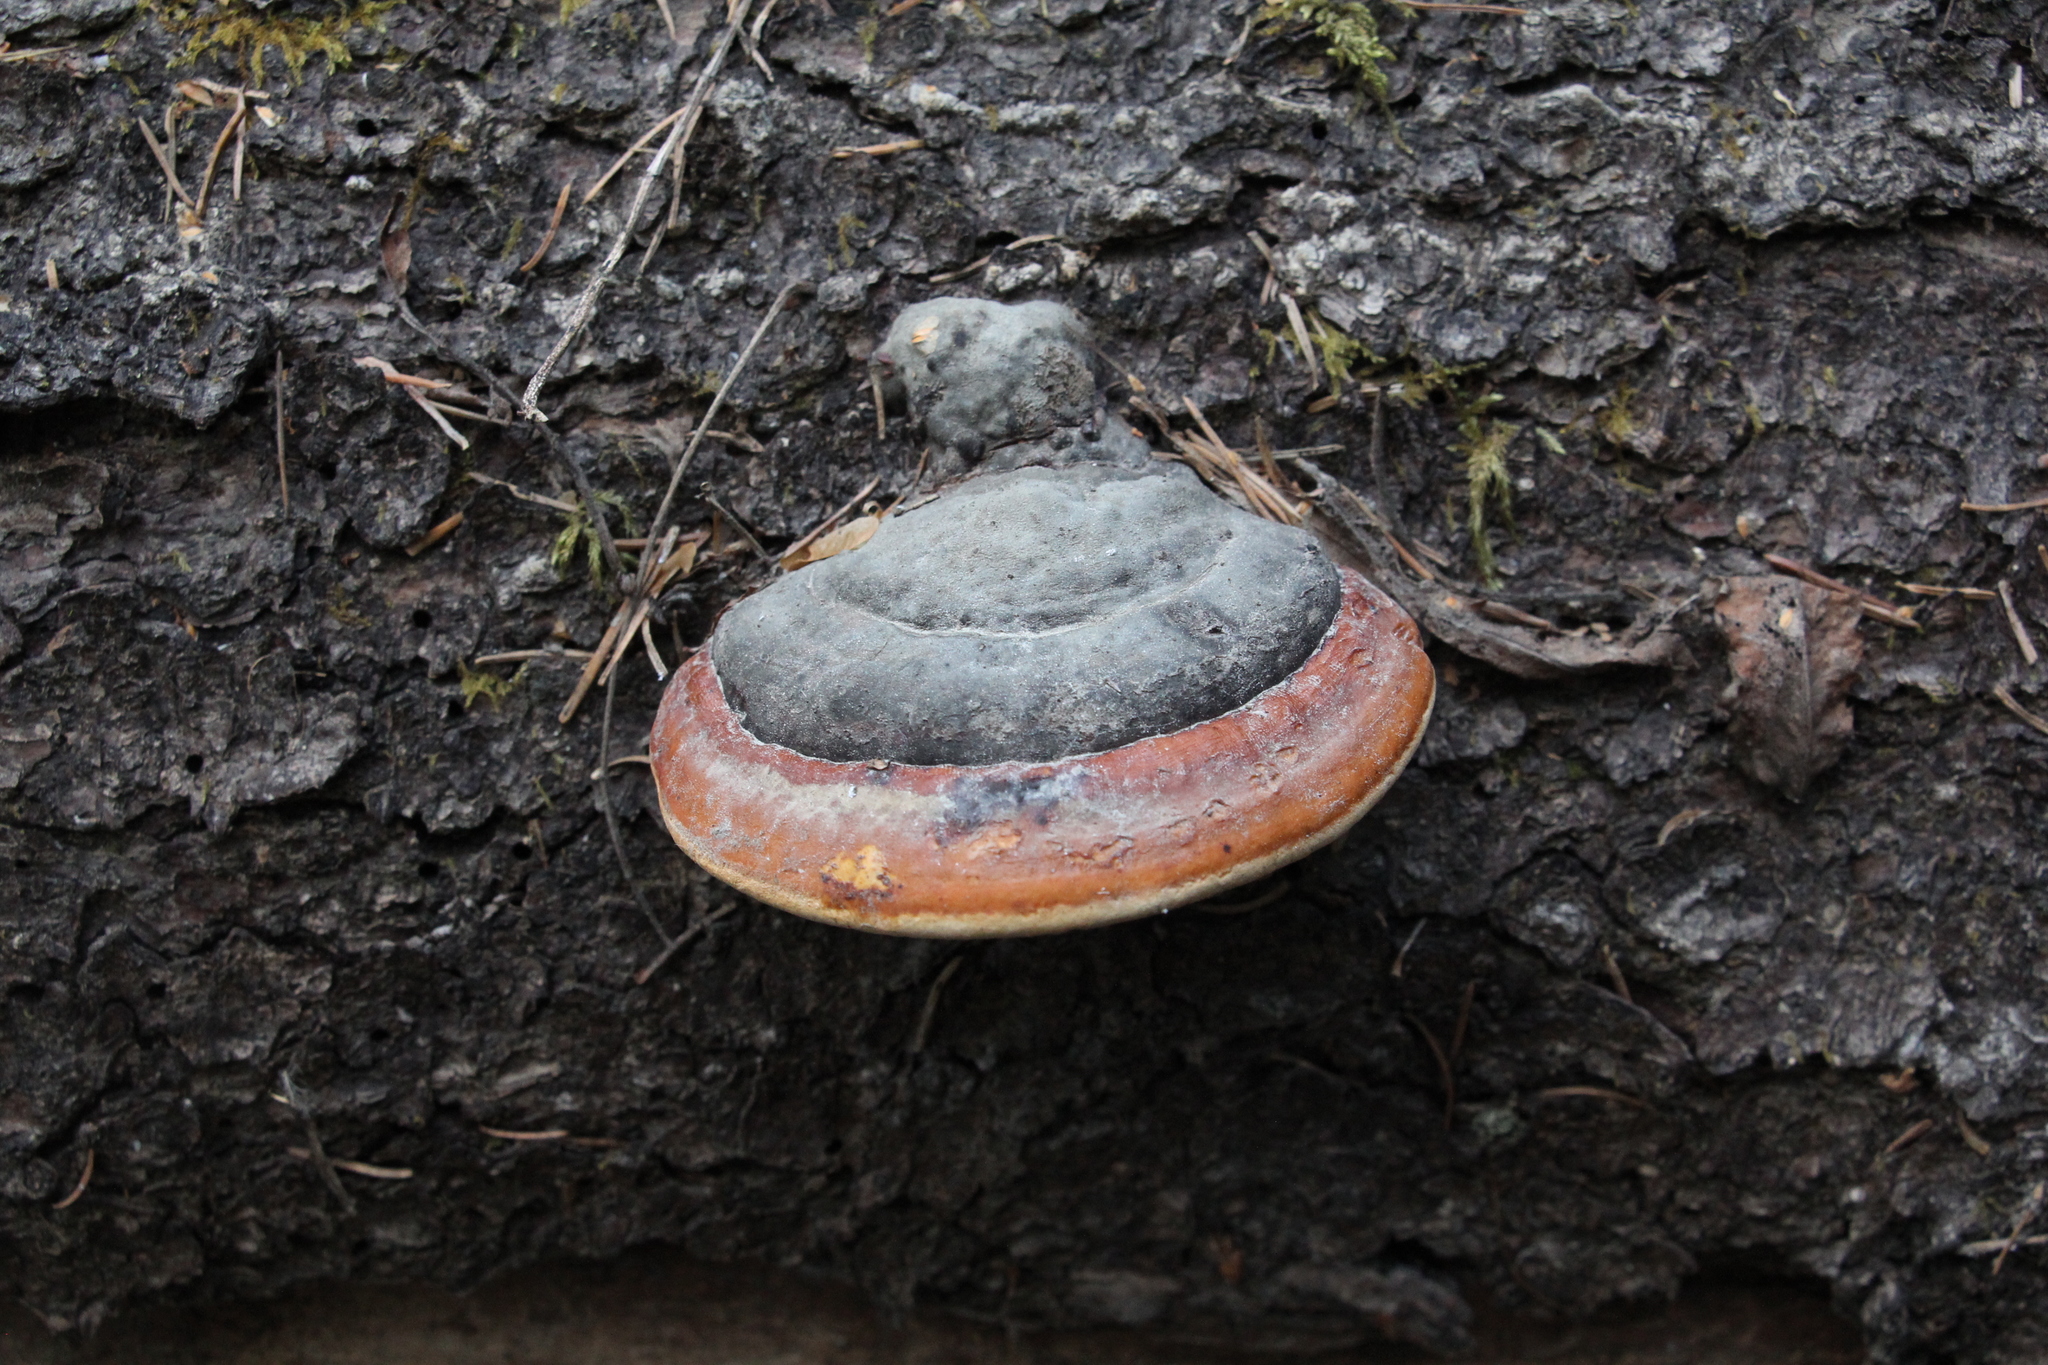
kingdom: Fungi
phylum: Basidiomycota
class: Agaricomycetes
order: Polyporales
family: Fomitopsidaceae
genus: Fomitopsis
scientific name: Fomitopsis pinicola
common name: Red-belted bracket
